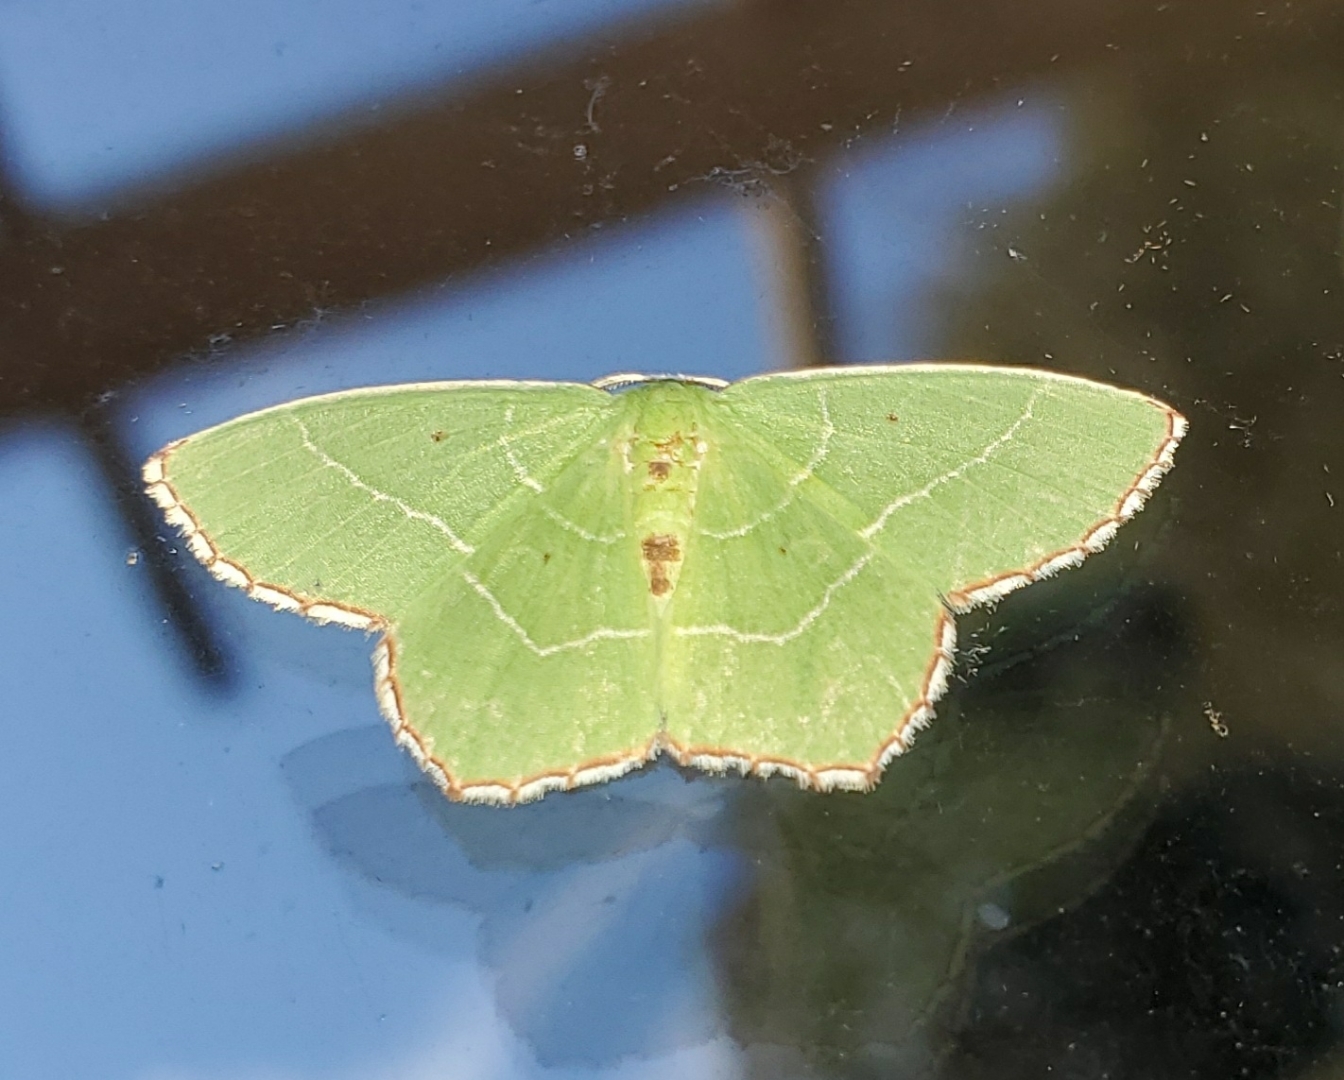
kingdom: Animalia
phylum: Arthropoda
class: Insecta
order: Lepidoptera
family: Geometridae
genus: Nemoria
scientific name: Nemoria saturiba
